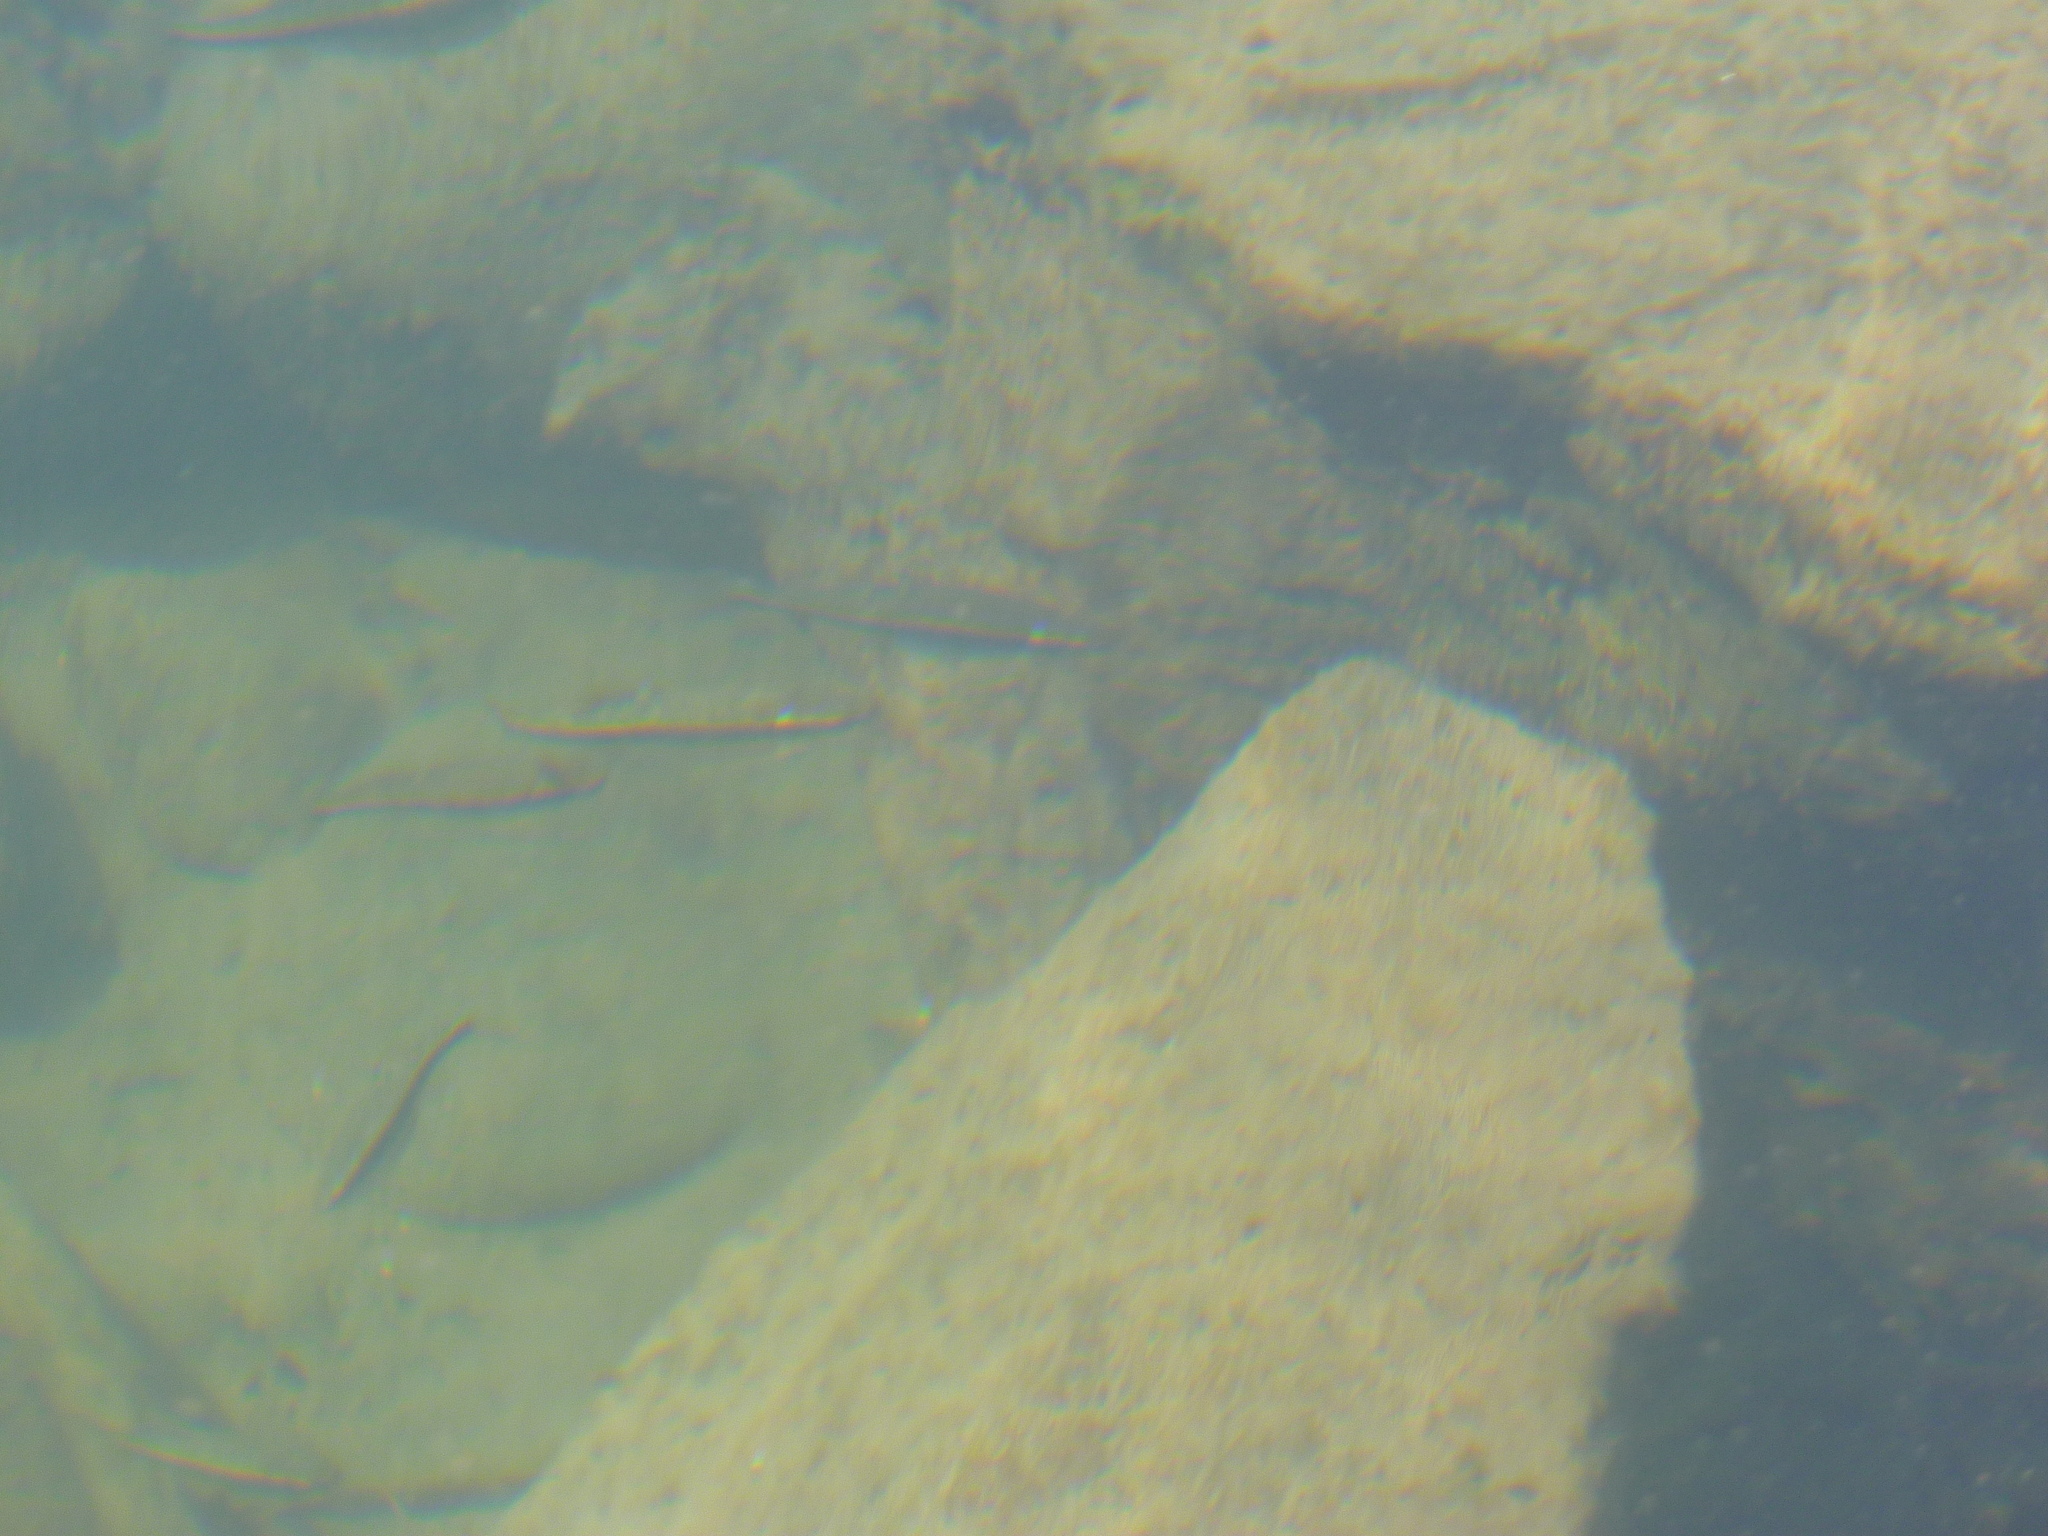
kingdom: Animalia
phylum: Chordata
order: Cypriniformes
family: Cyprinidae
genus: Phoxinus
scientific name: Phoxinus bigerri
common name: Adour minnow
